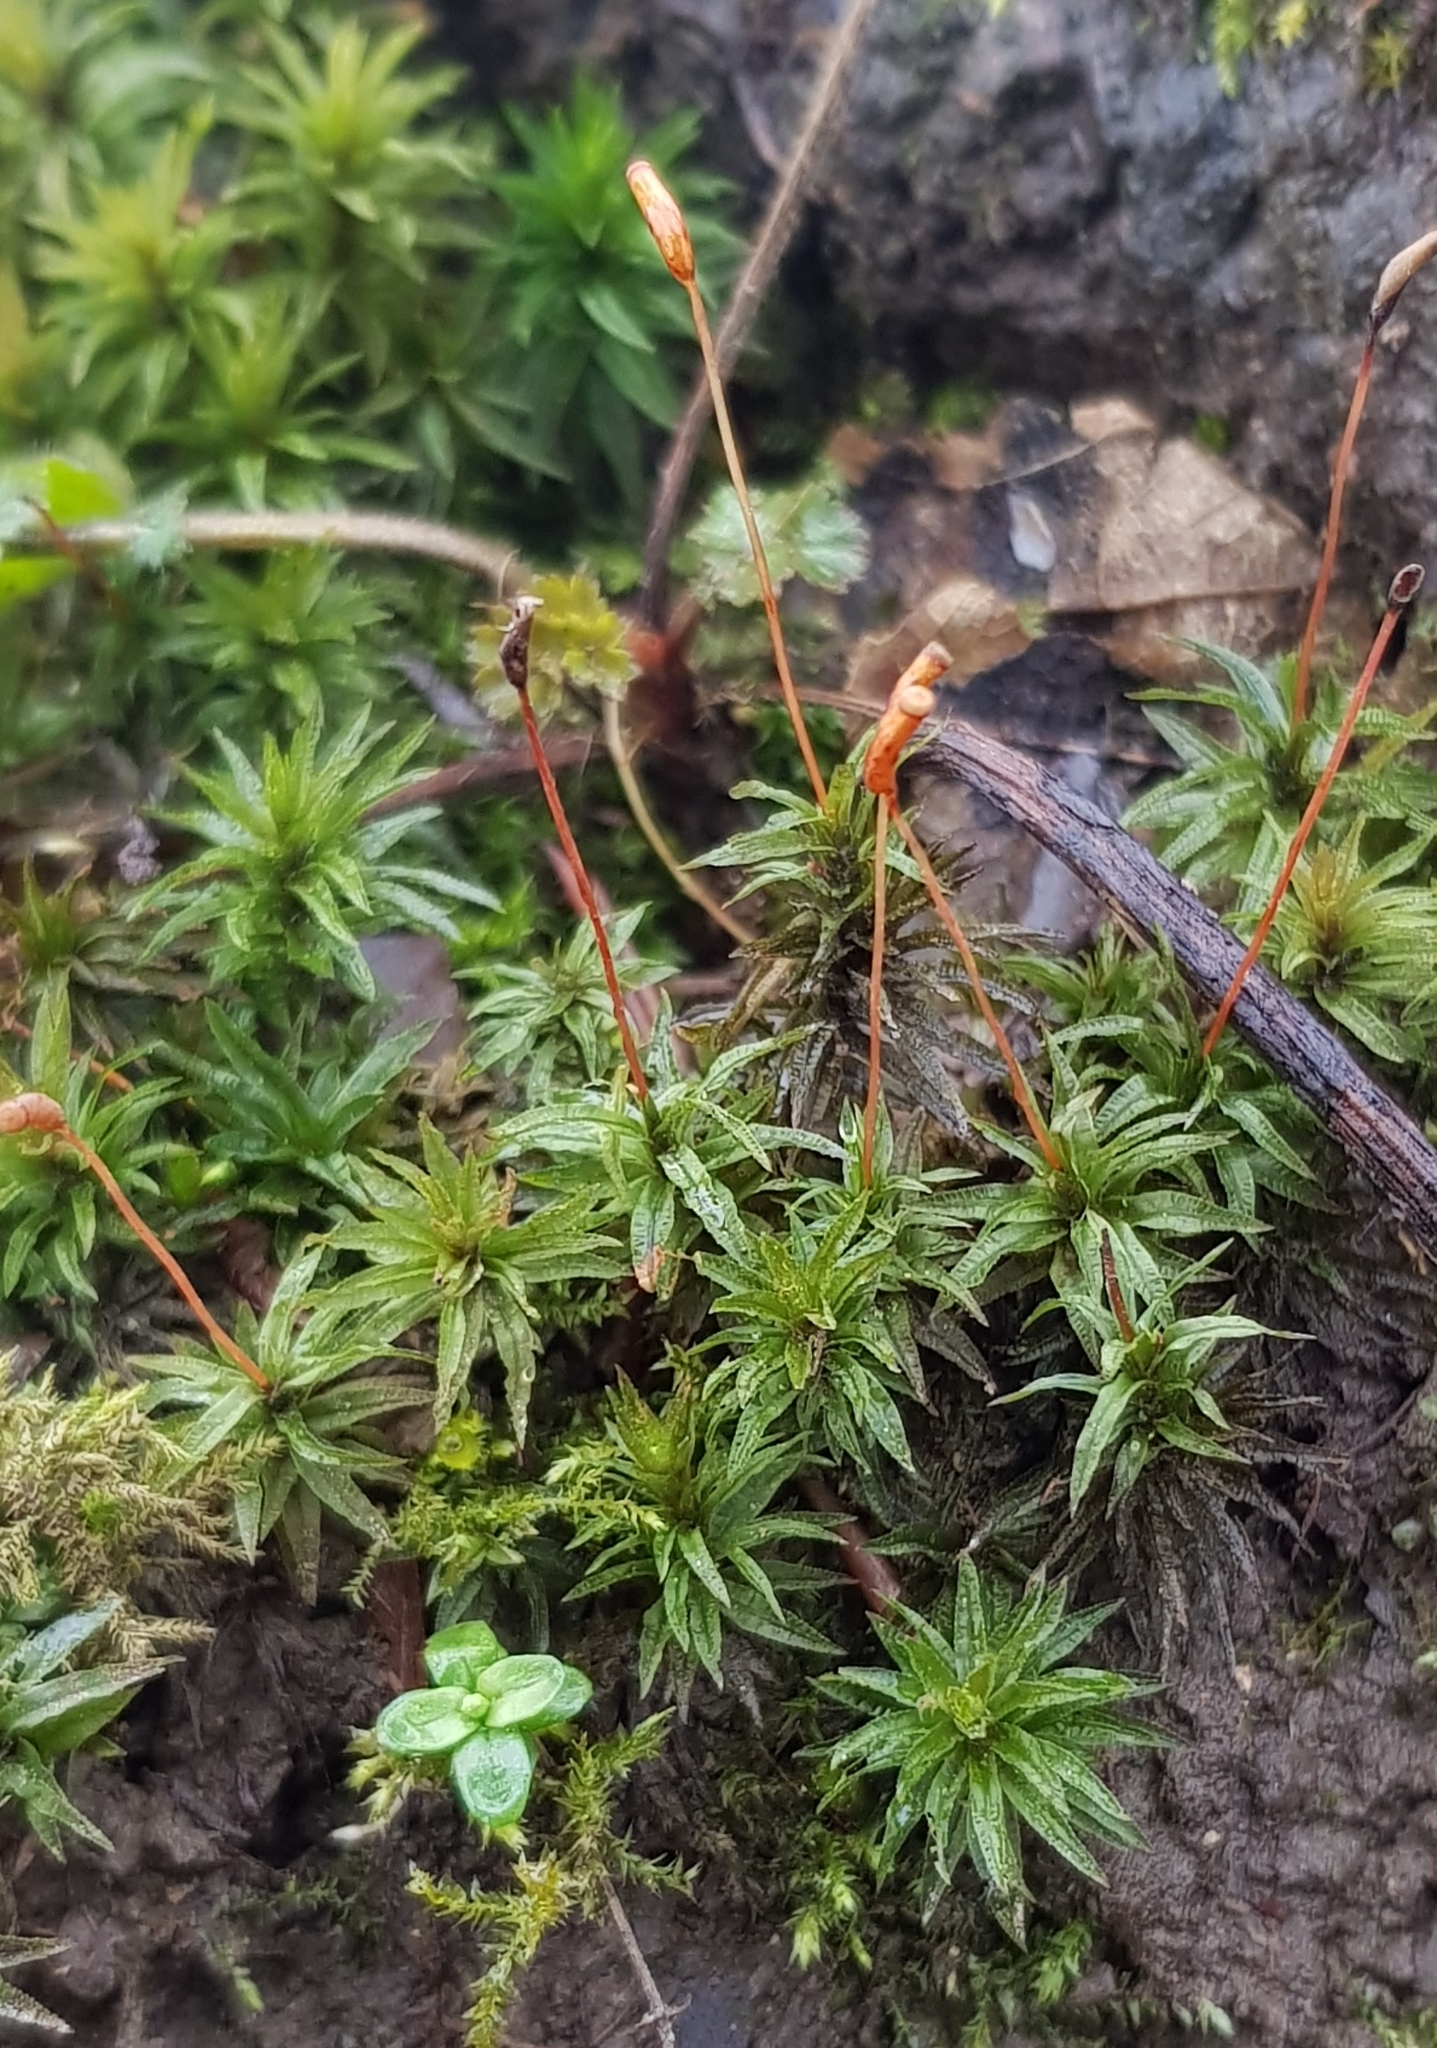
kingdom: Plantae
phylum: Bryophyta
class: Polytrichopsida
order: Polytrichales
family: Polytrichaceae
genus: Atrichum
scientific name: Atrichum undulatum
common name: Common smoothcap
